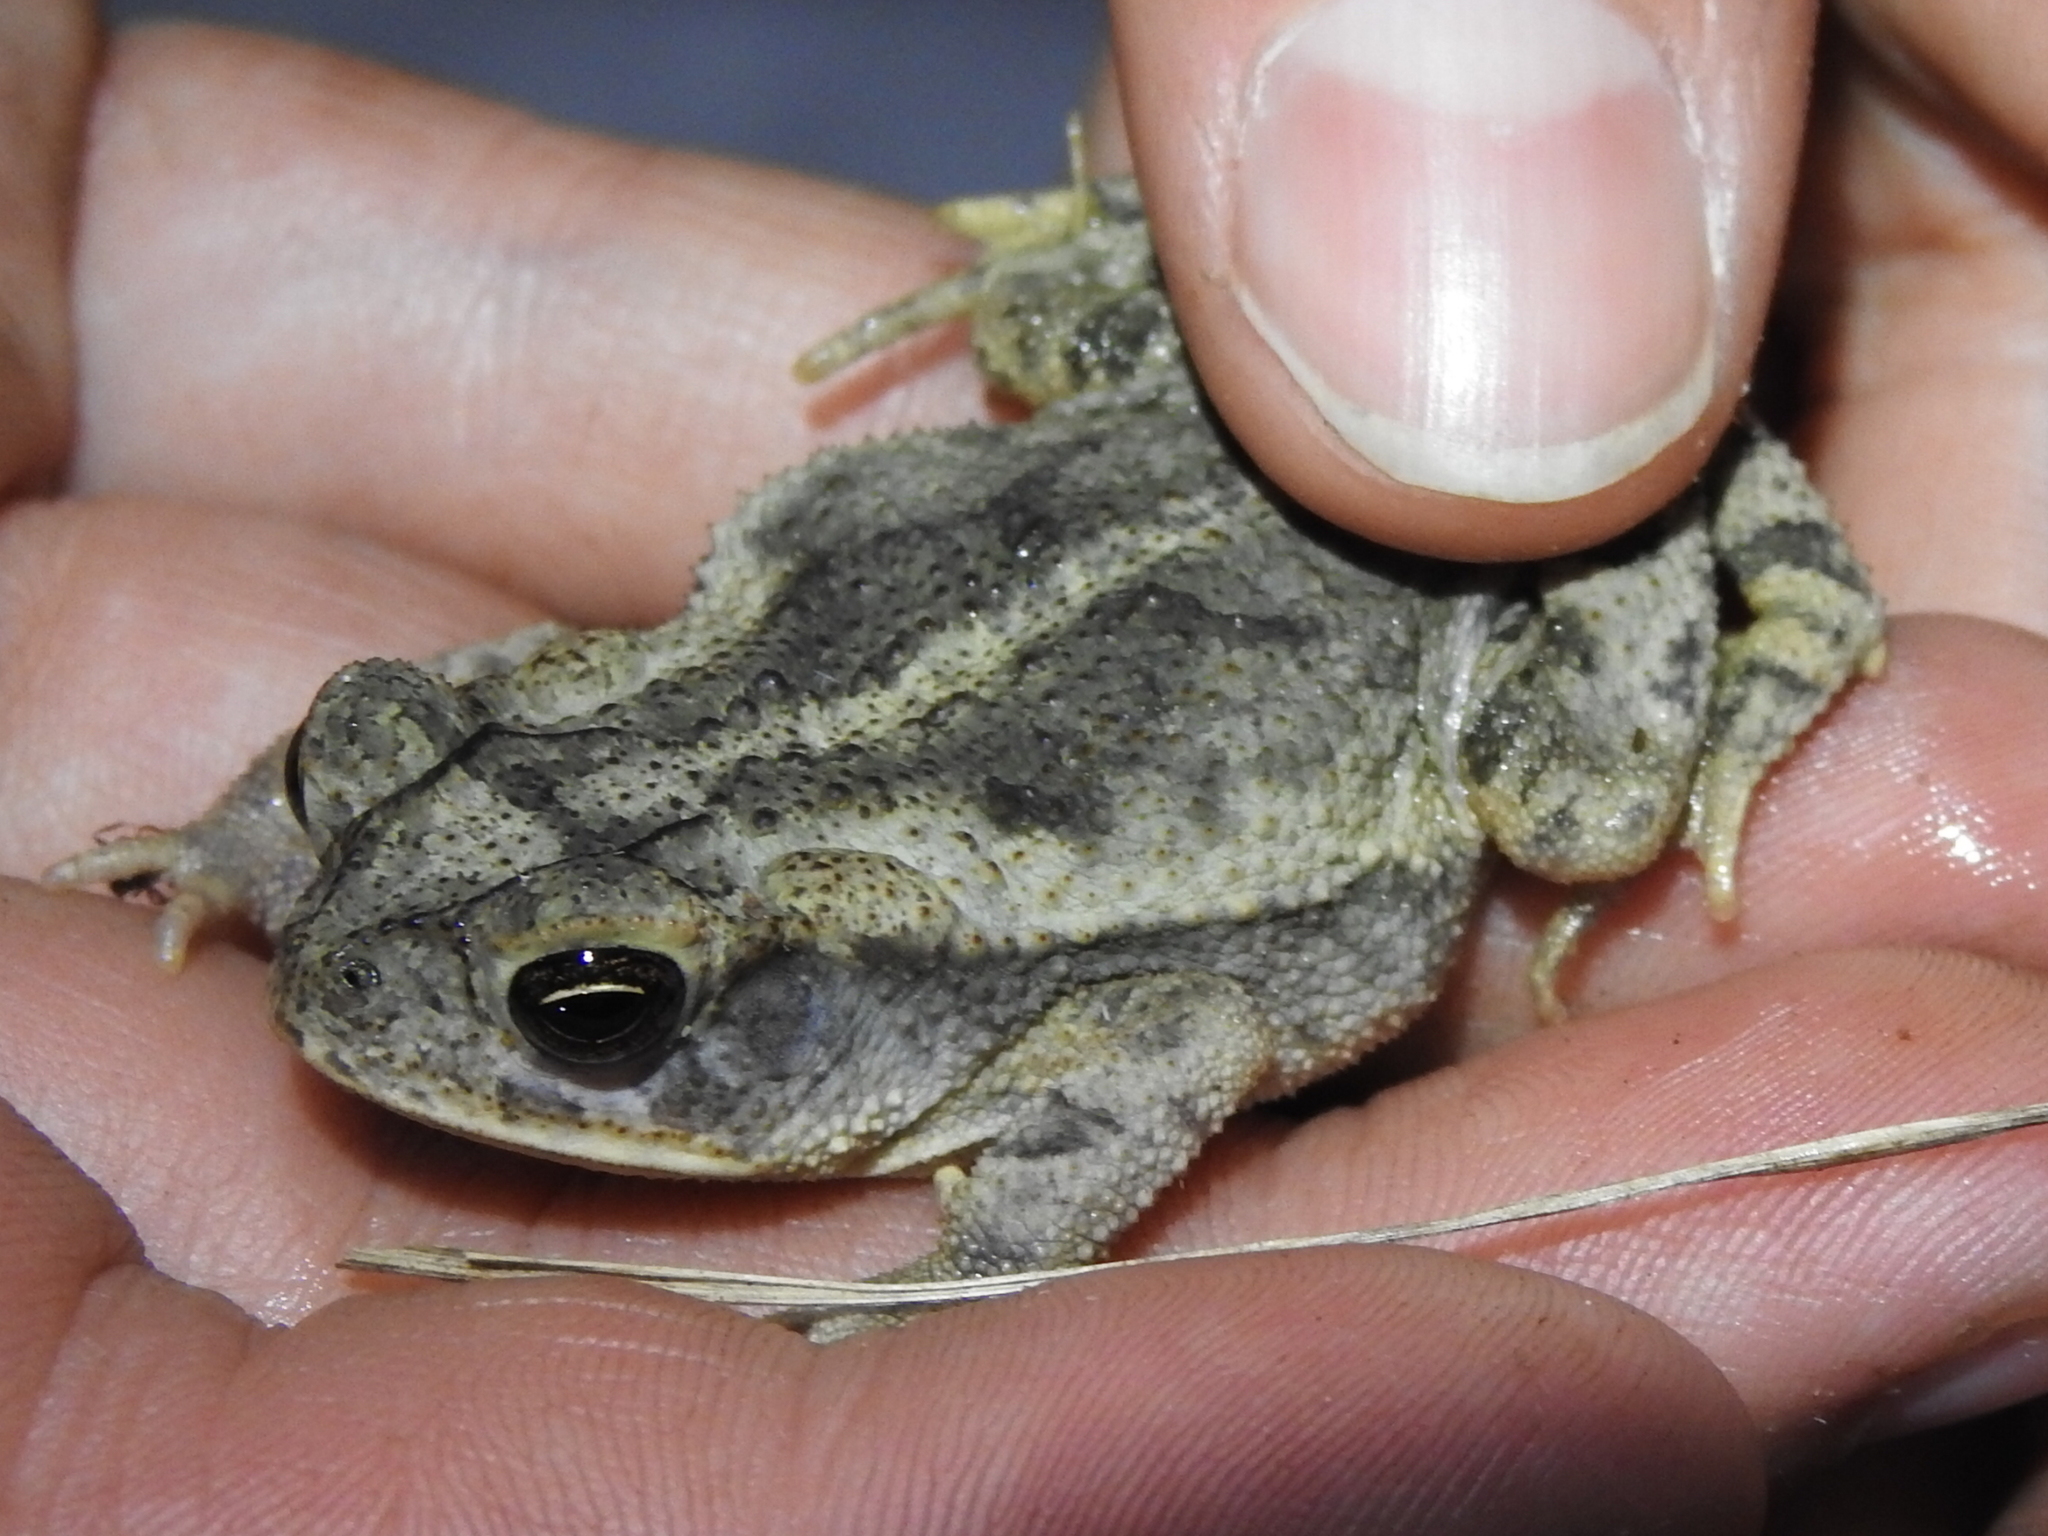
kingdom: Animalia
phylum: Chordata
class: Amphibia
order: Anura
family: Bufonidae
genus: Incilius
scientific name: Incilius nebulifer
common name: Gulf coast toad
